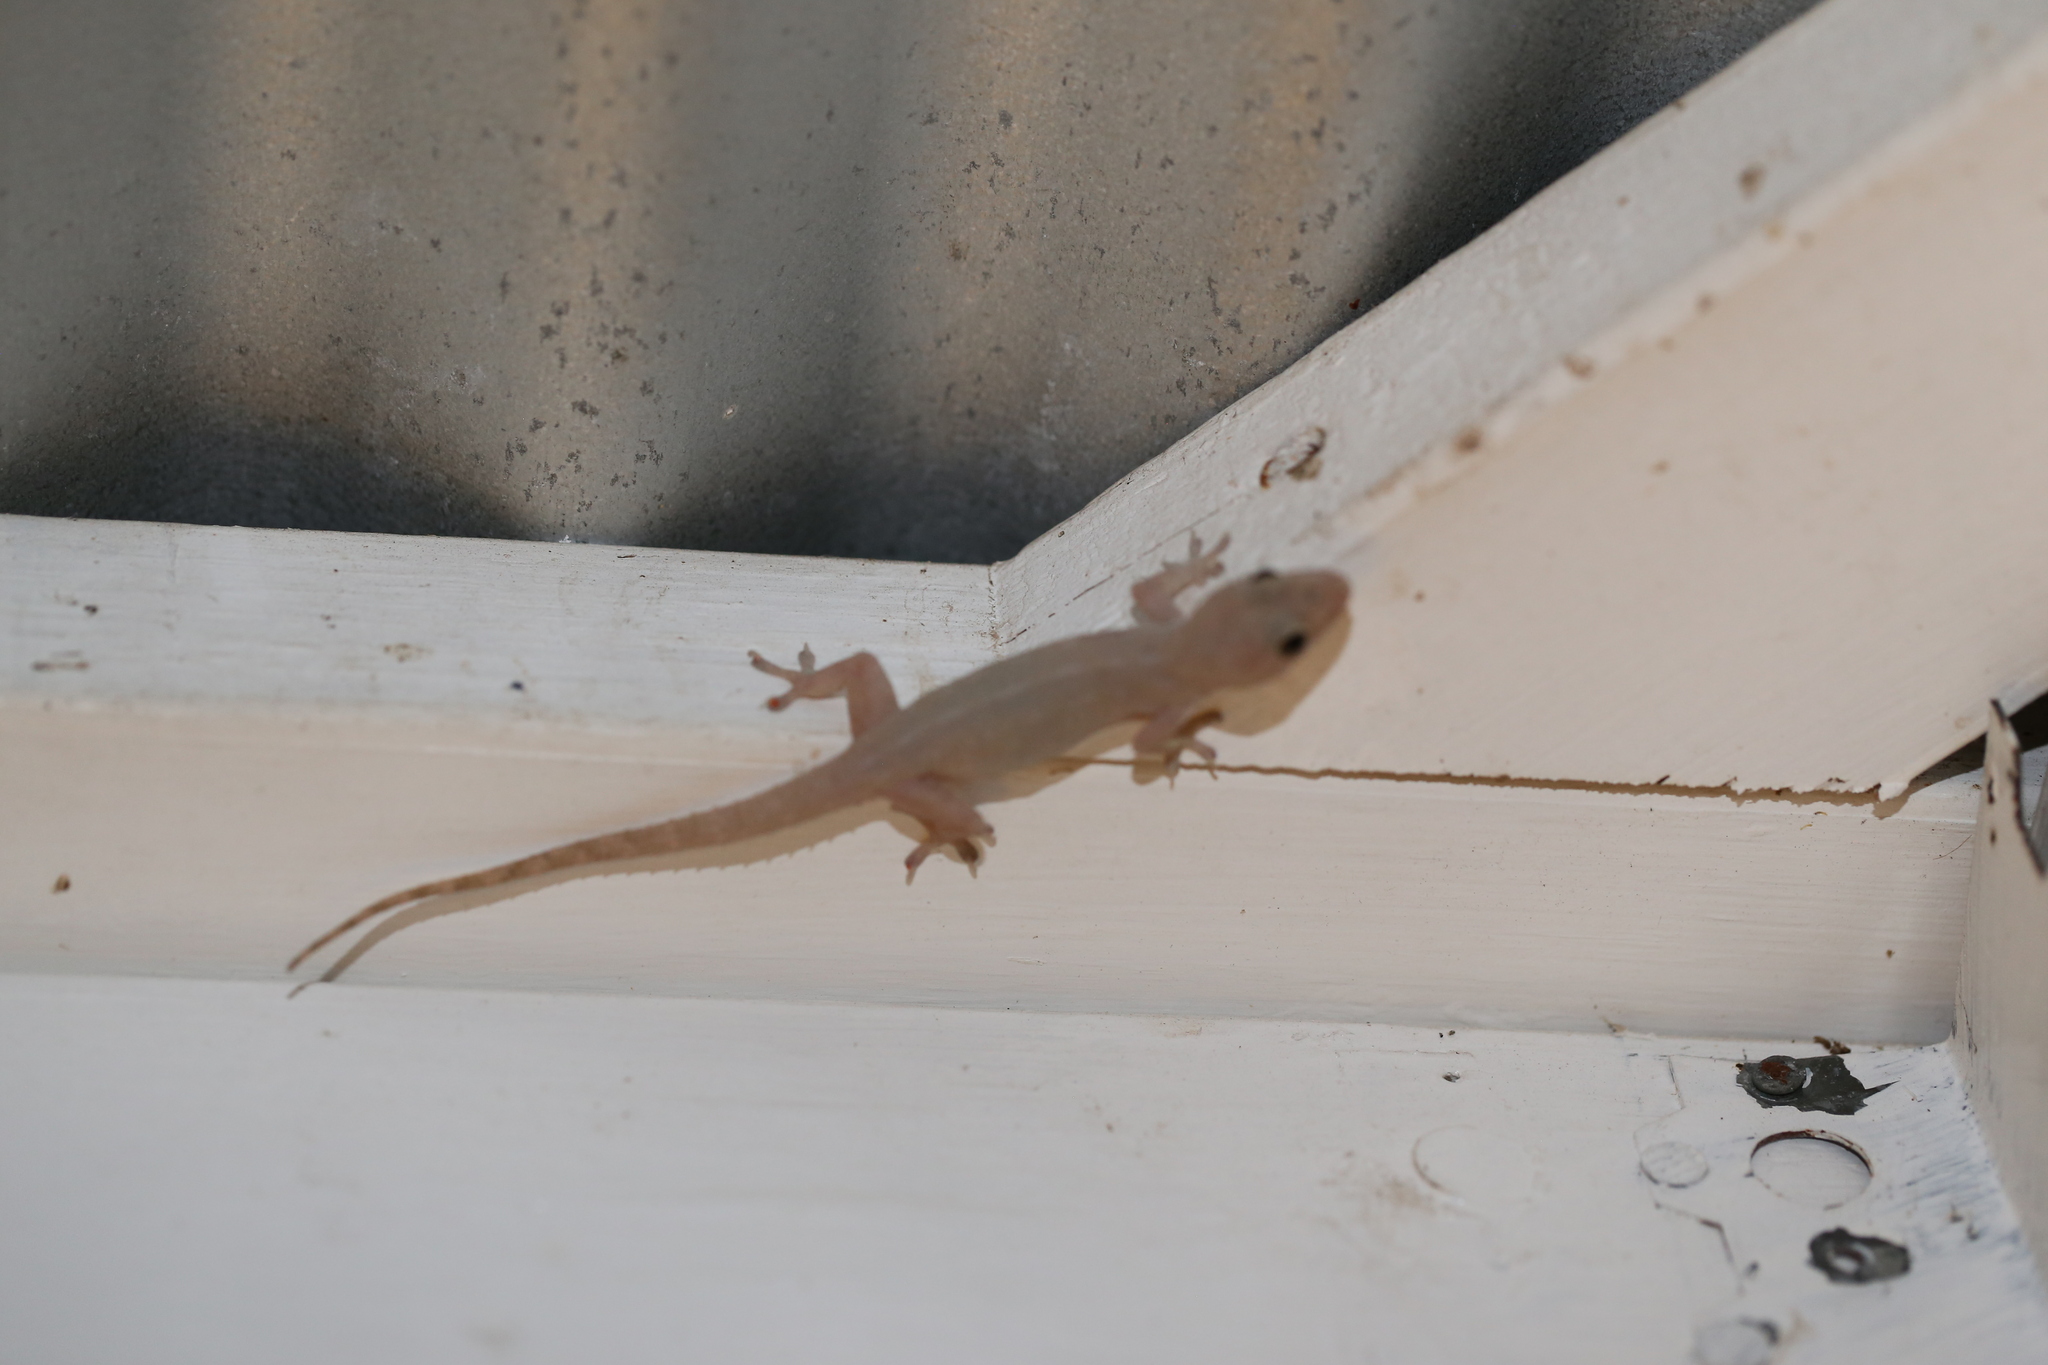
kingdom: Animalia
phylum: Chordata
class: Squamata
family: Gekkonidae
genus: Hemidactylus
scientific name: Hemidactylus frenatus
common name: Common house gecko
